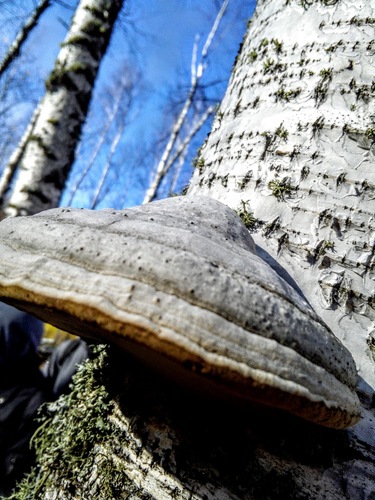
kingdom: Fungi
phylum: Basidiomycota
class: Agaricomycetes
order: Polyporales
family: Polyporaceae
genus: Fomes
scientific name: Fomes fomentarius
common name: Hoof fungus
